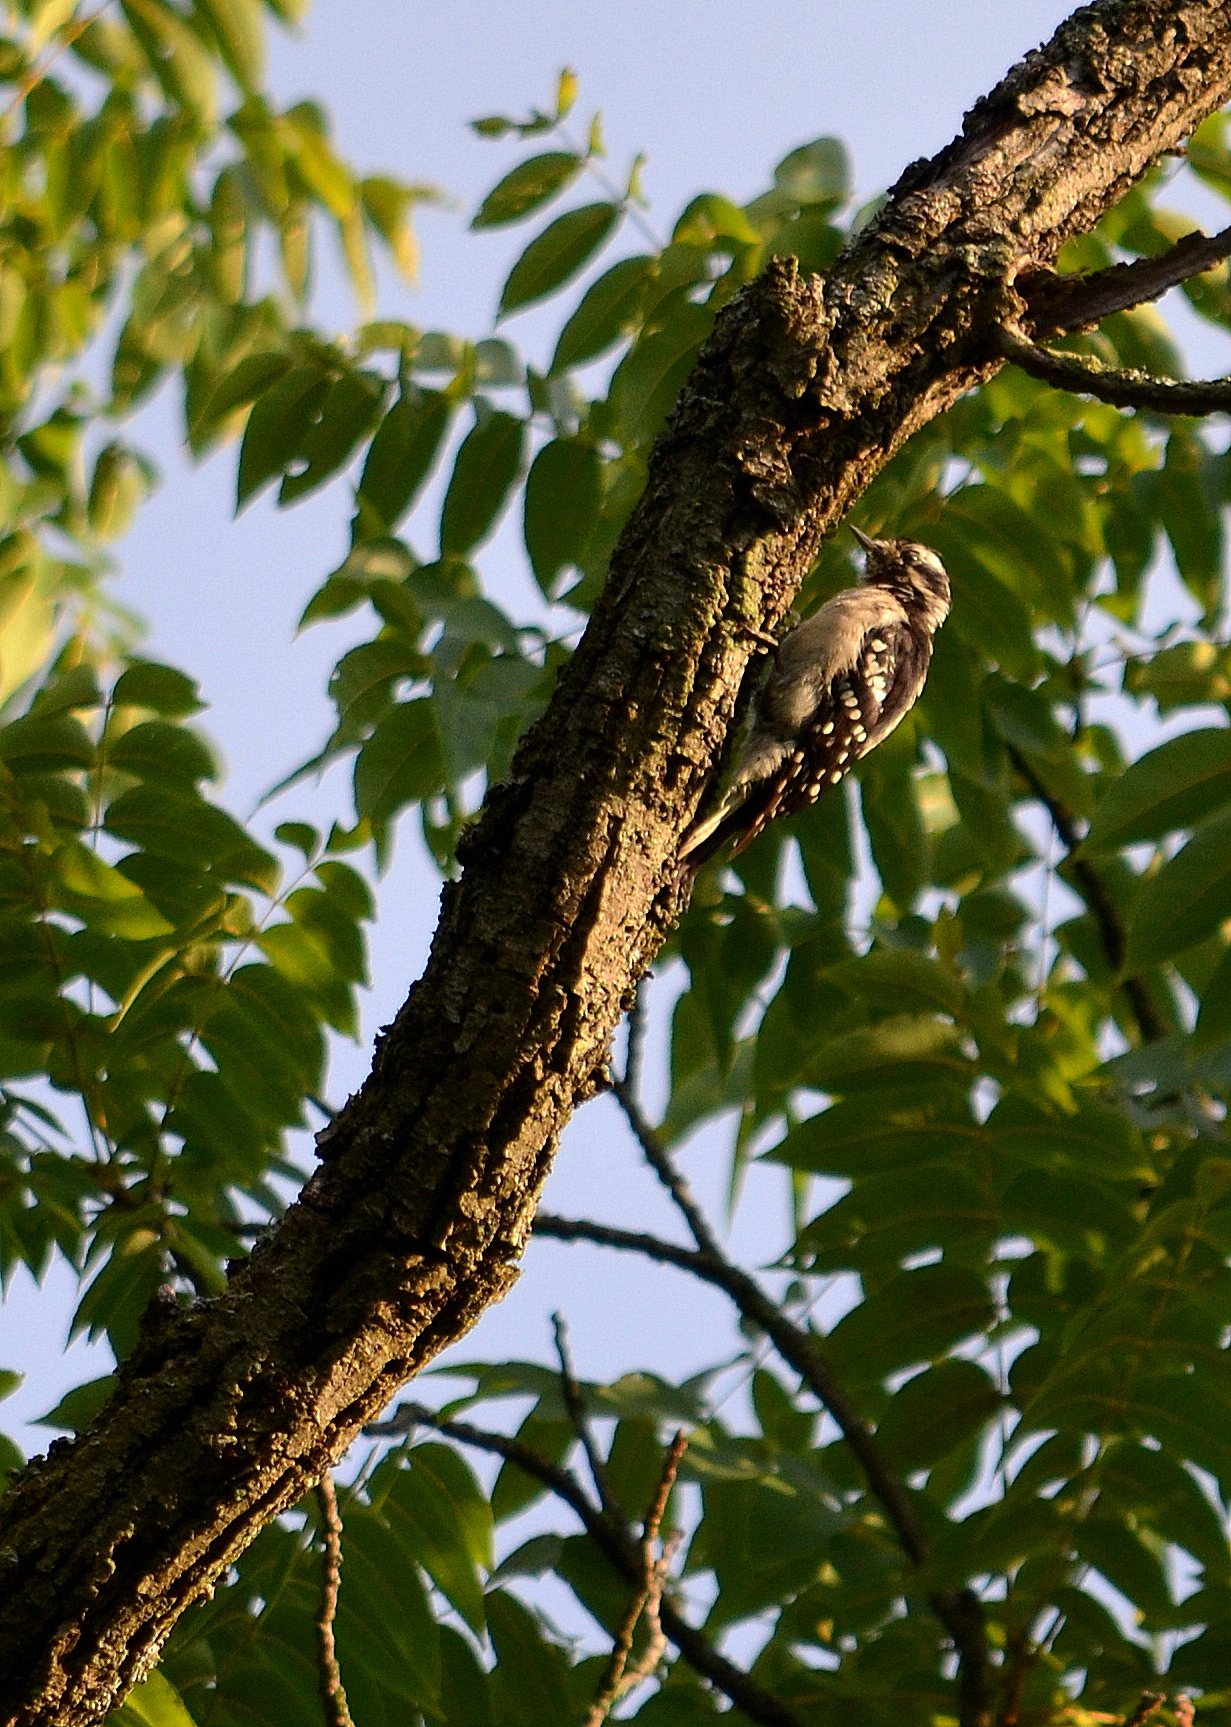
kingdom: Animalia
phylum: Chordata
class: Aves
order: Piciformes
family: Picidae
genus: Dryobates
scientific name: Dryobates pubescens
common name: Downy woodpecker
